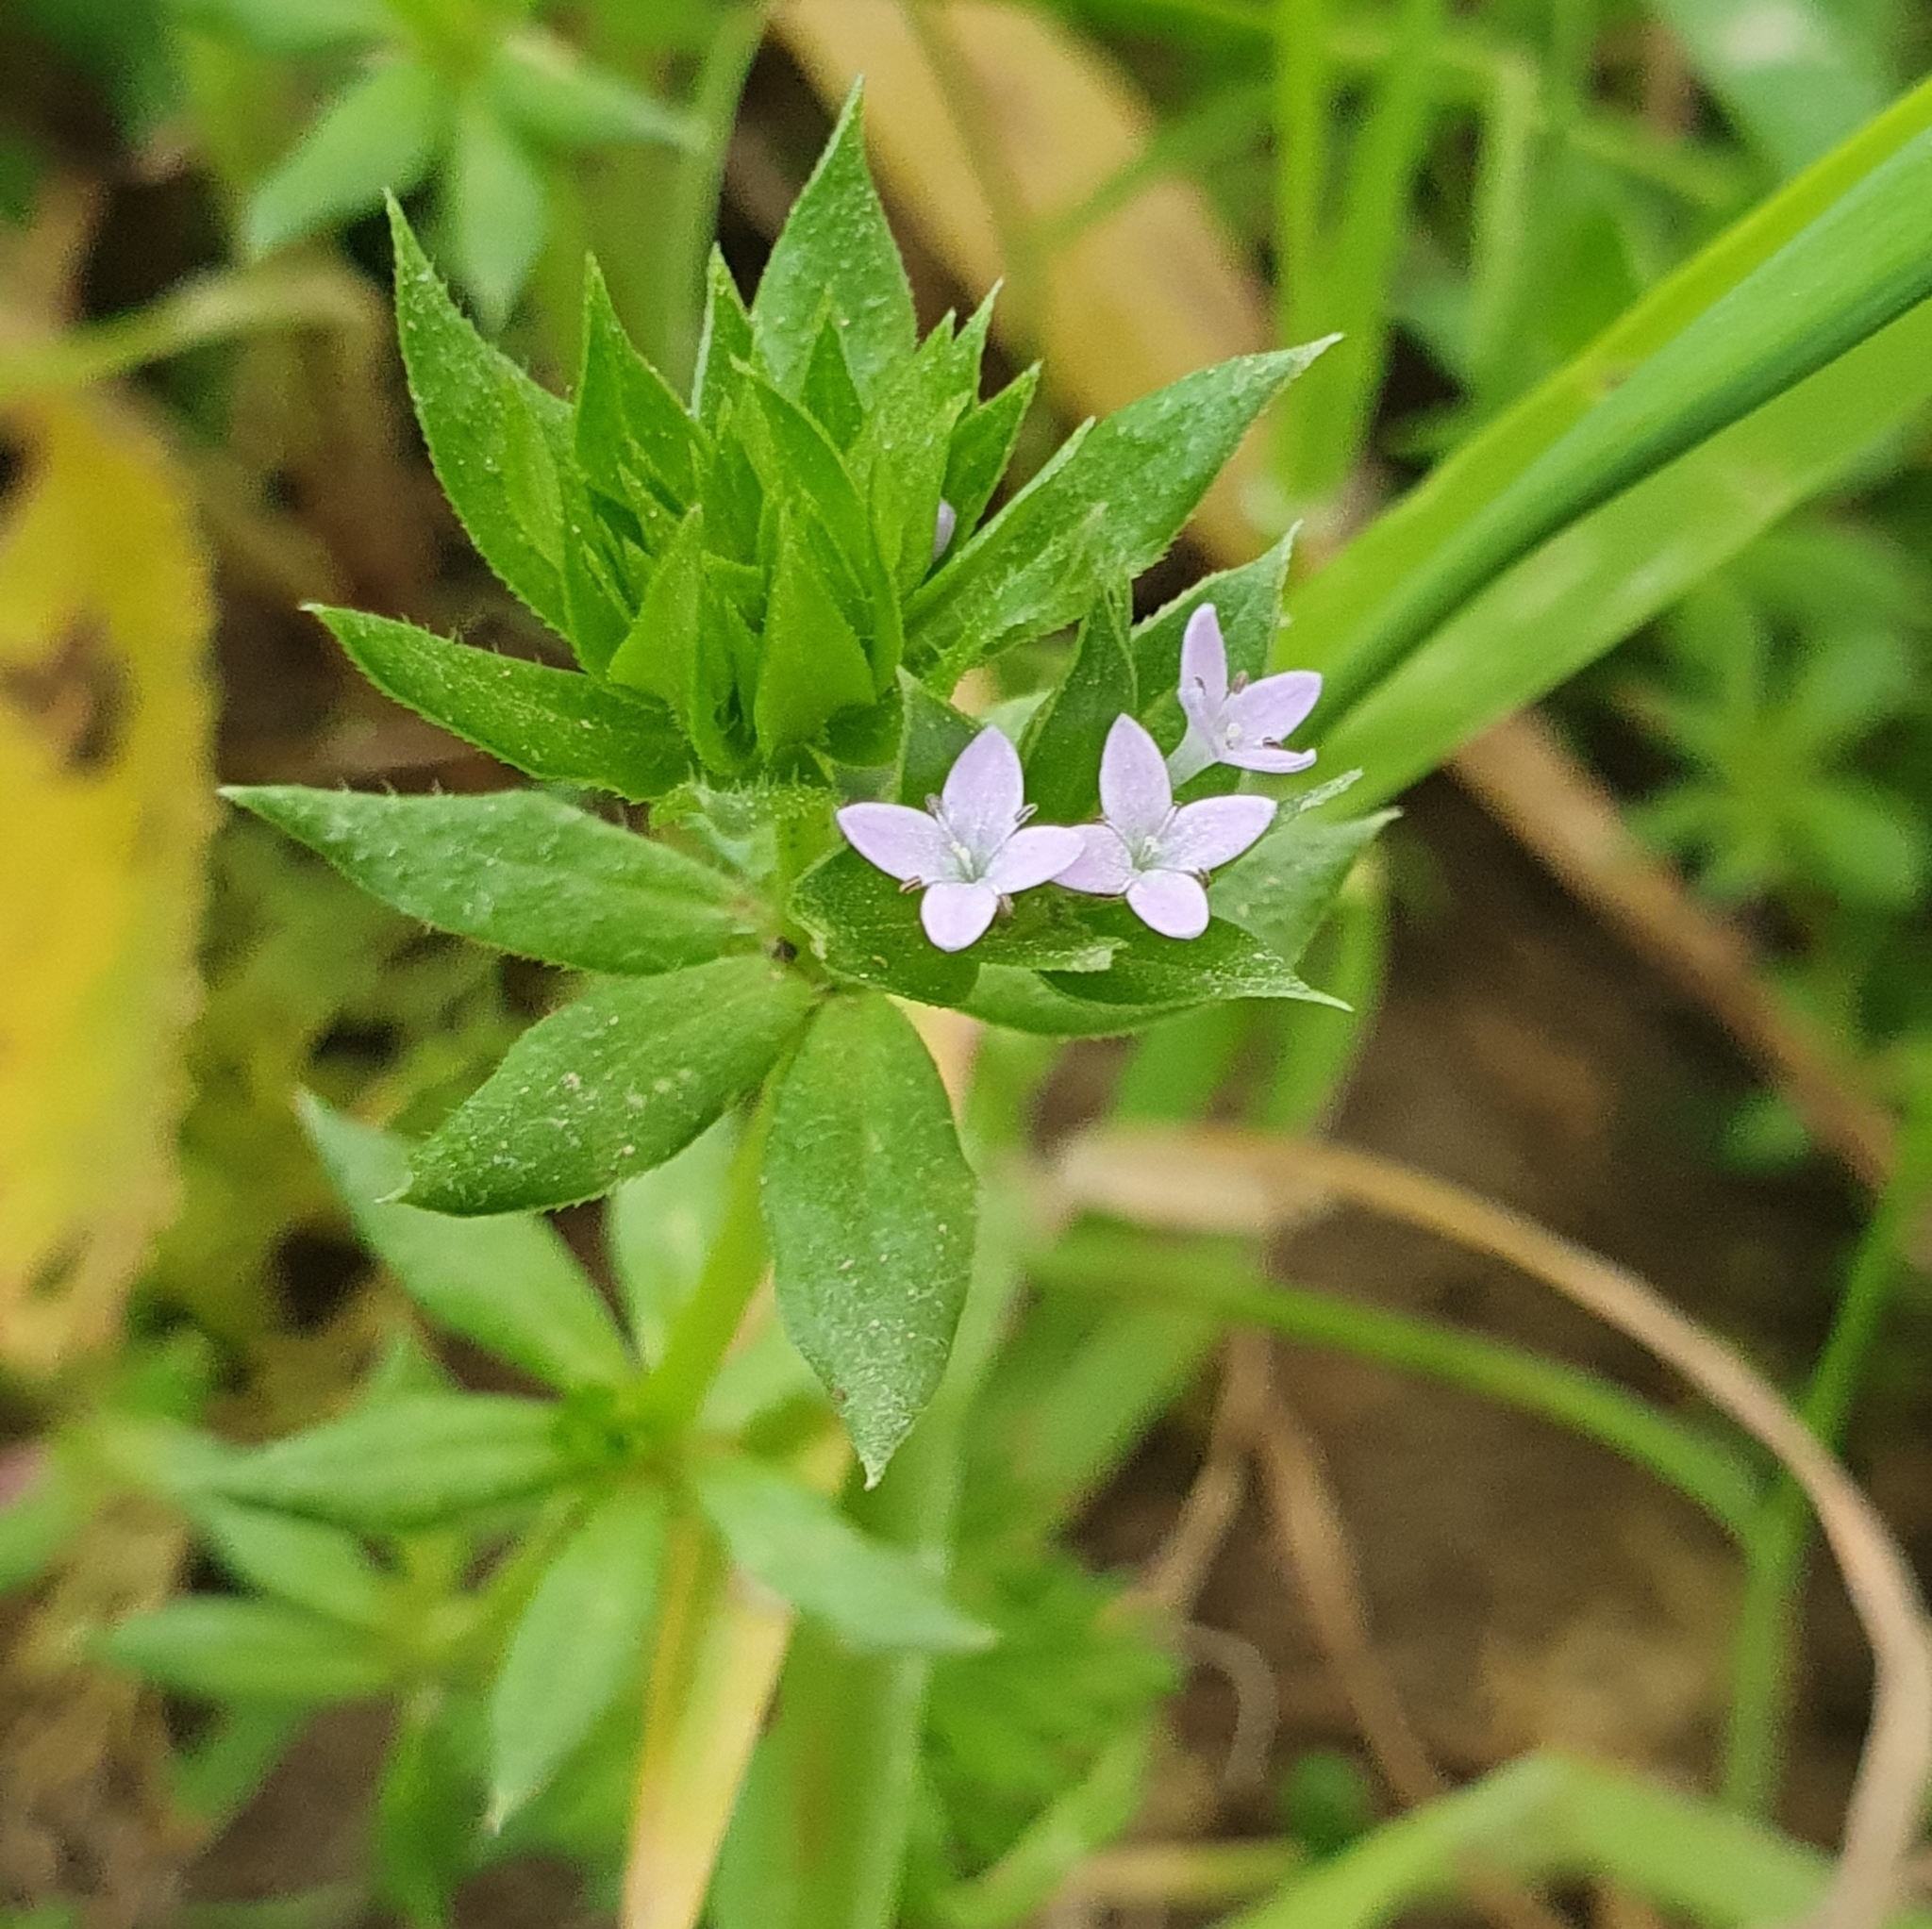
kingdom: Plantae
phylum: Tracheophyta
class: Magnoliopsida
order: Gentianales
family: Rubiaceae
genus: Sherardia
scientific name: Sherardia arvensis
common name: Field madder
